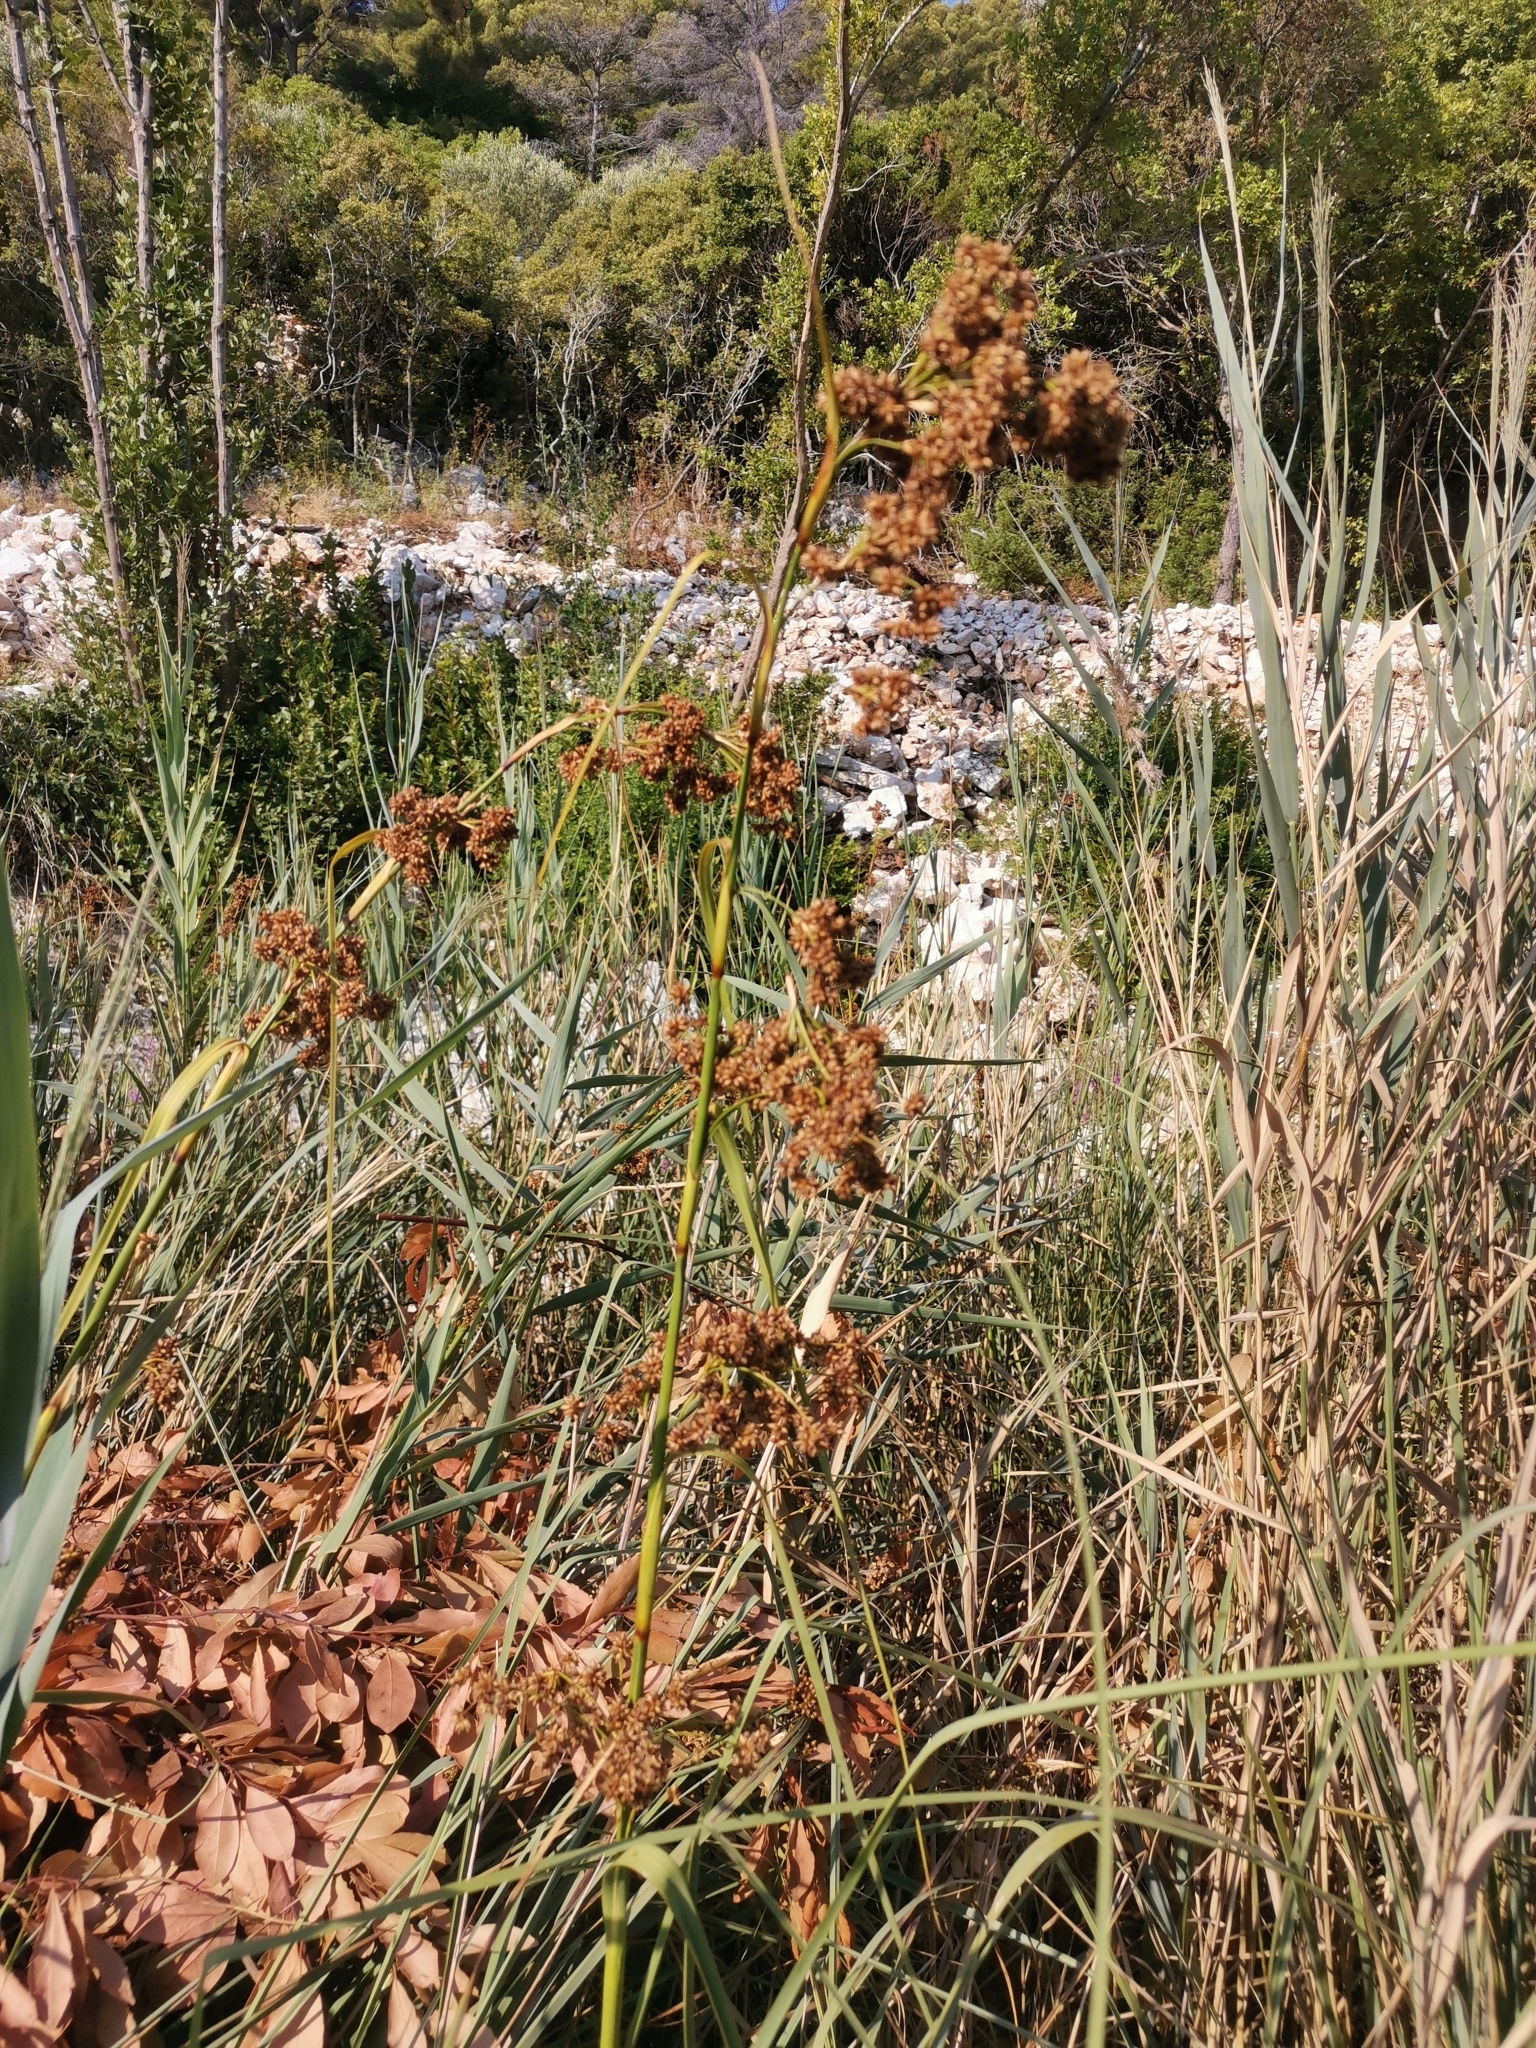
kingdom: Plantae
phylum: Tracheophyta
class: Liliopsida
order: Poales
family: Cyperaceae
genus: Cladium
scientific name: Cladium mariscus
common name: Great fen-sedge
